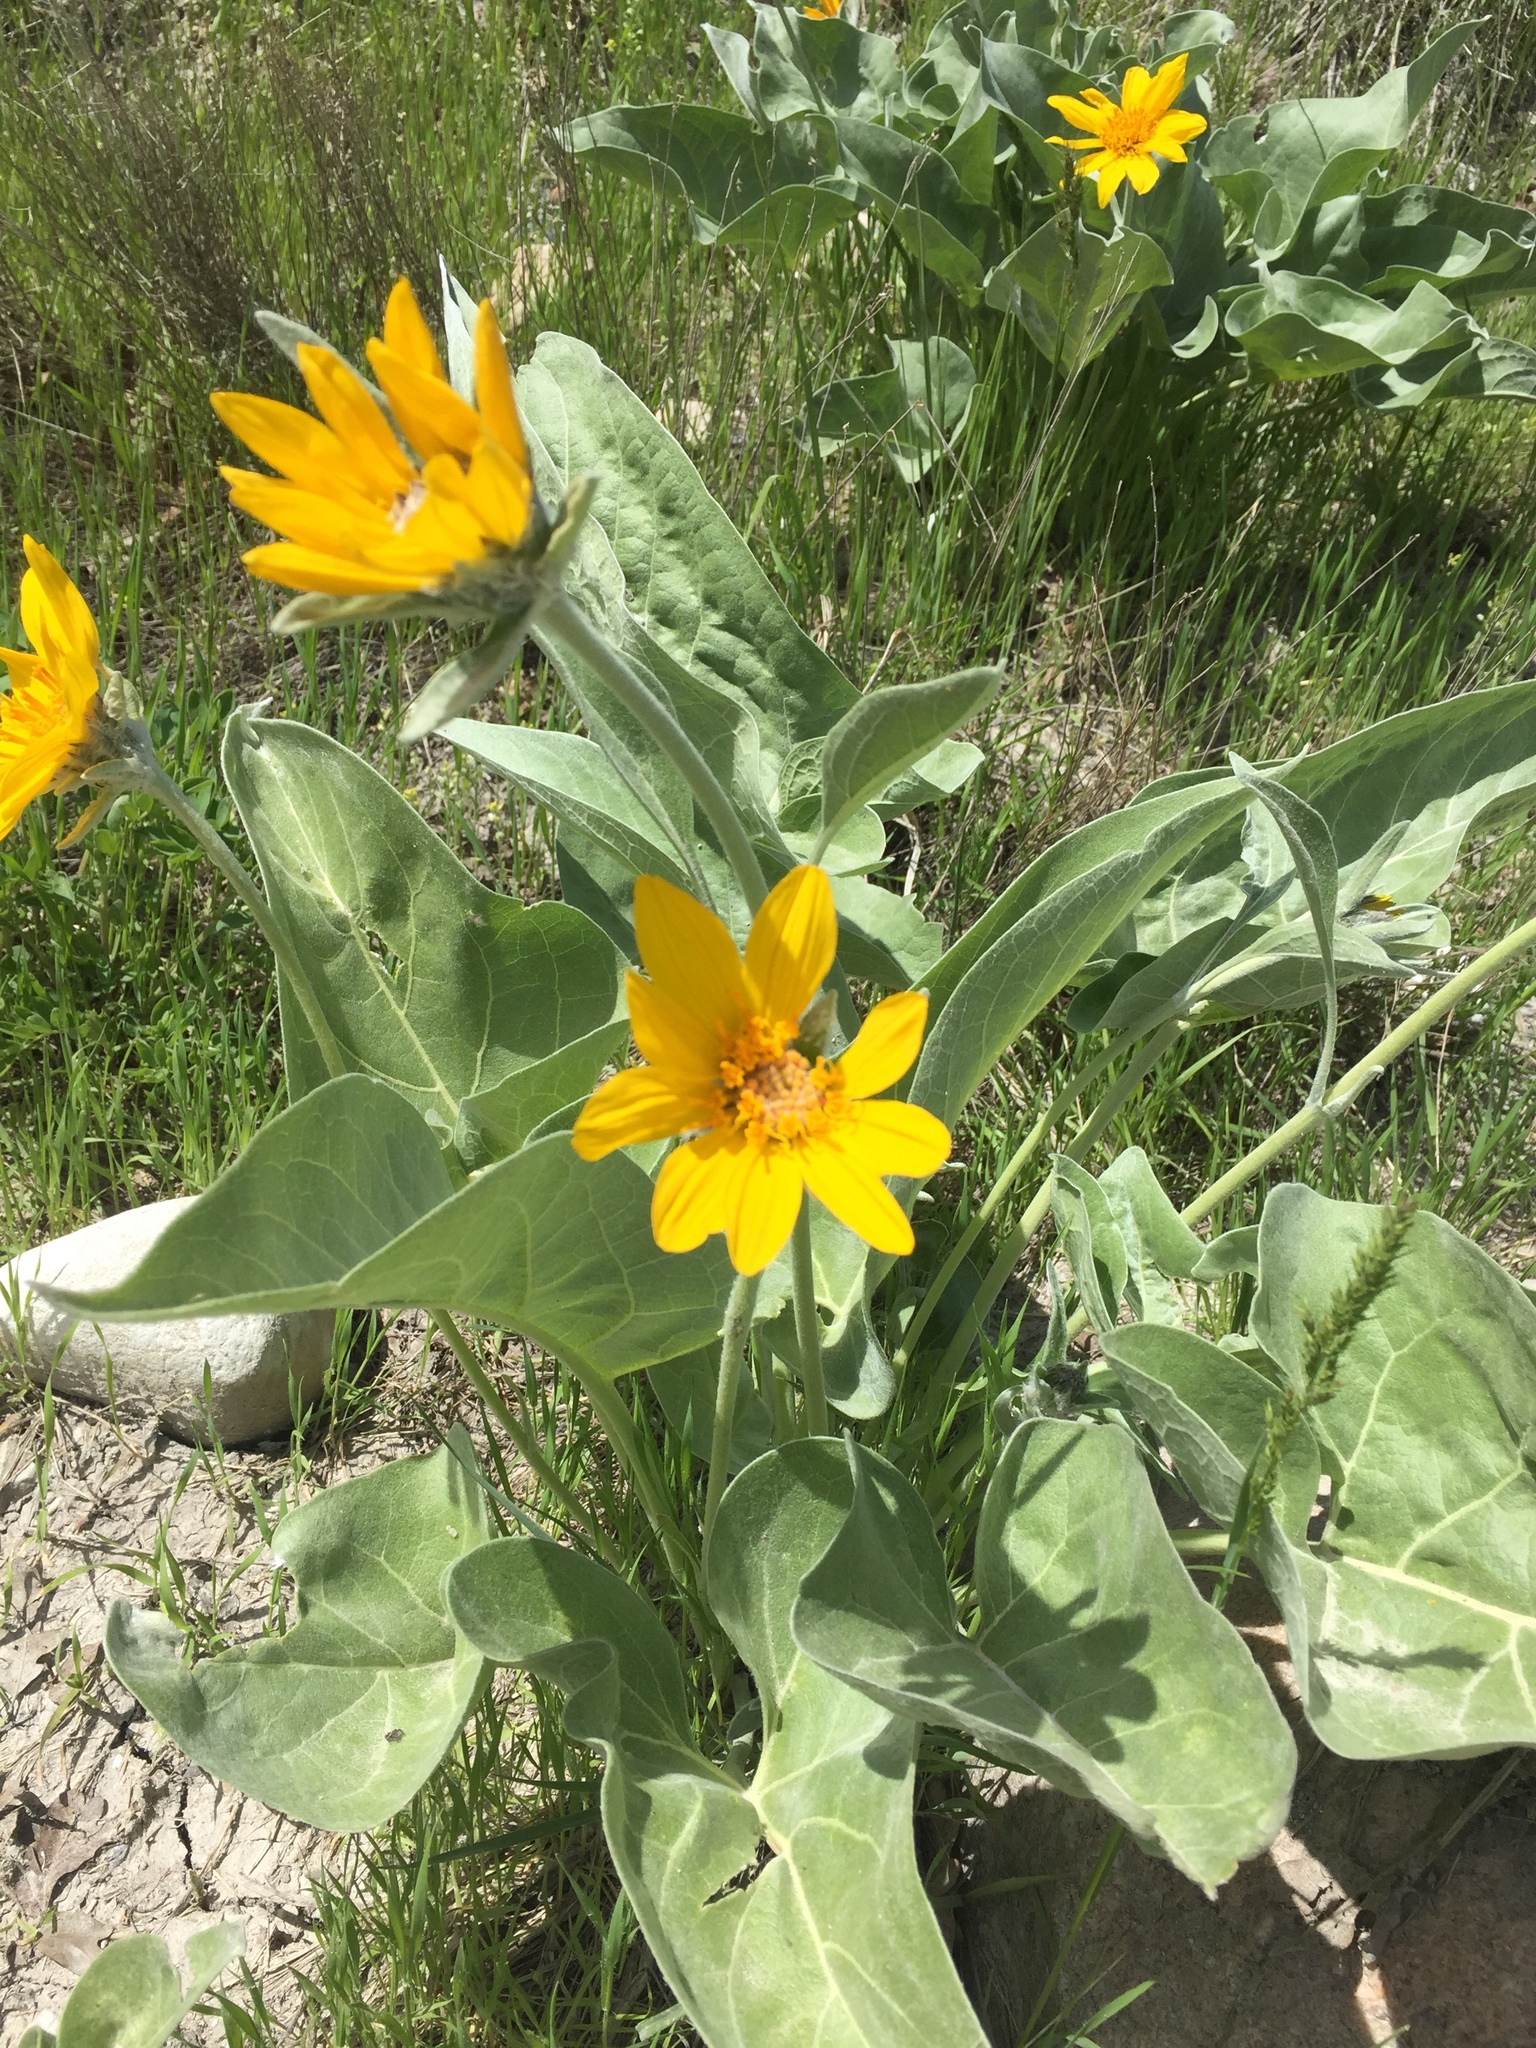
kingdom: Plantae
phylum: Tracheophyta
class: Magnoliopsida
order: Asterales
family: Asteraceae
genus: Wyethia
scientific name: Wyethia sagittata
